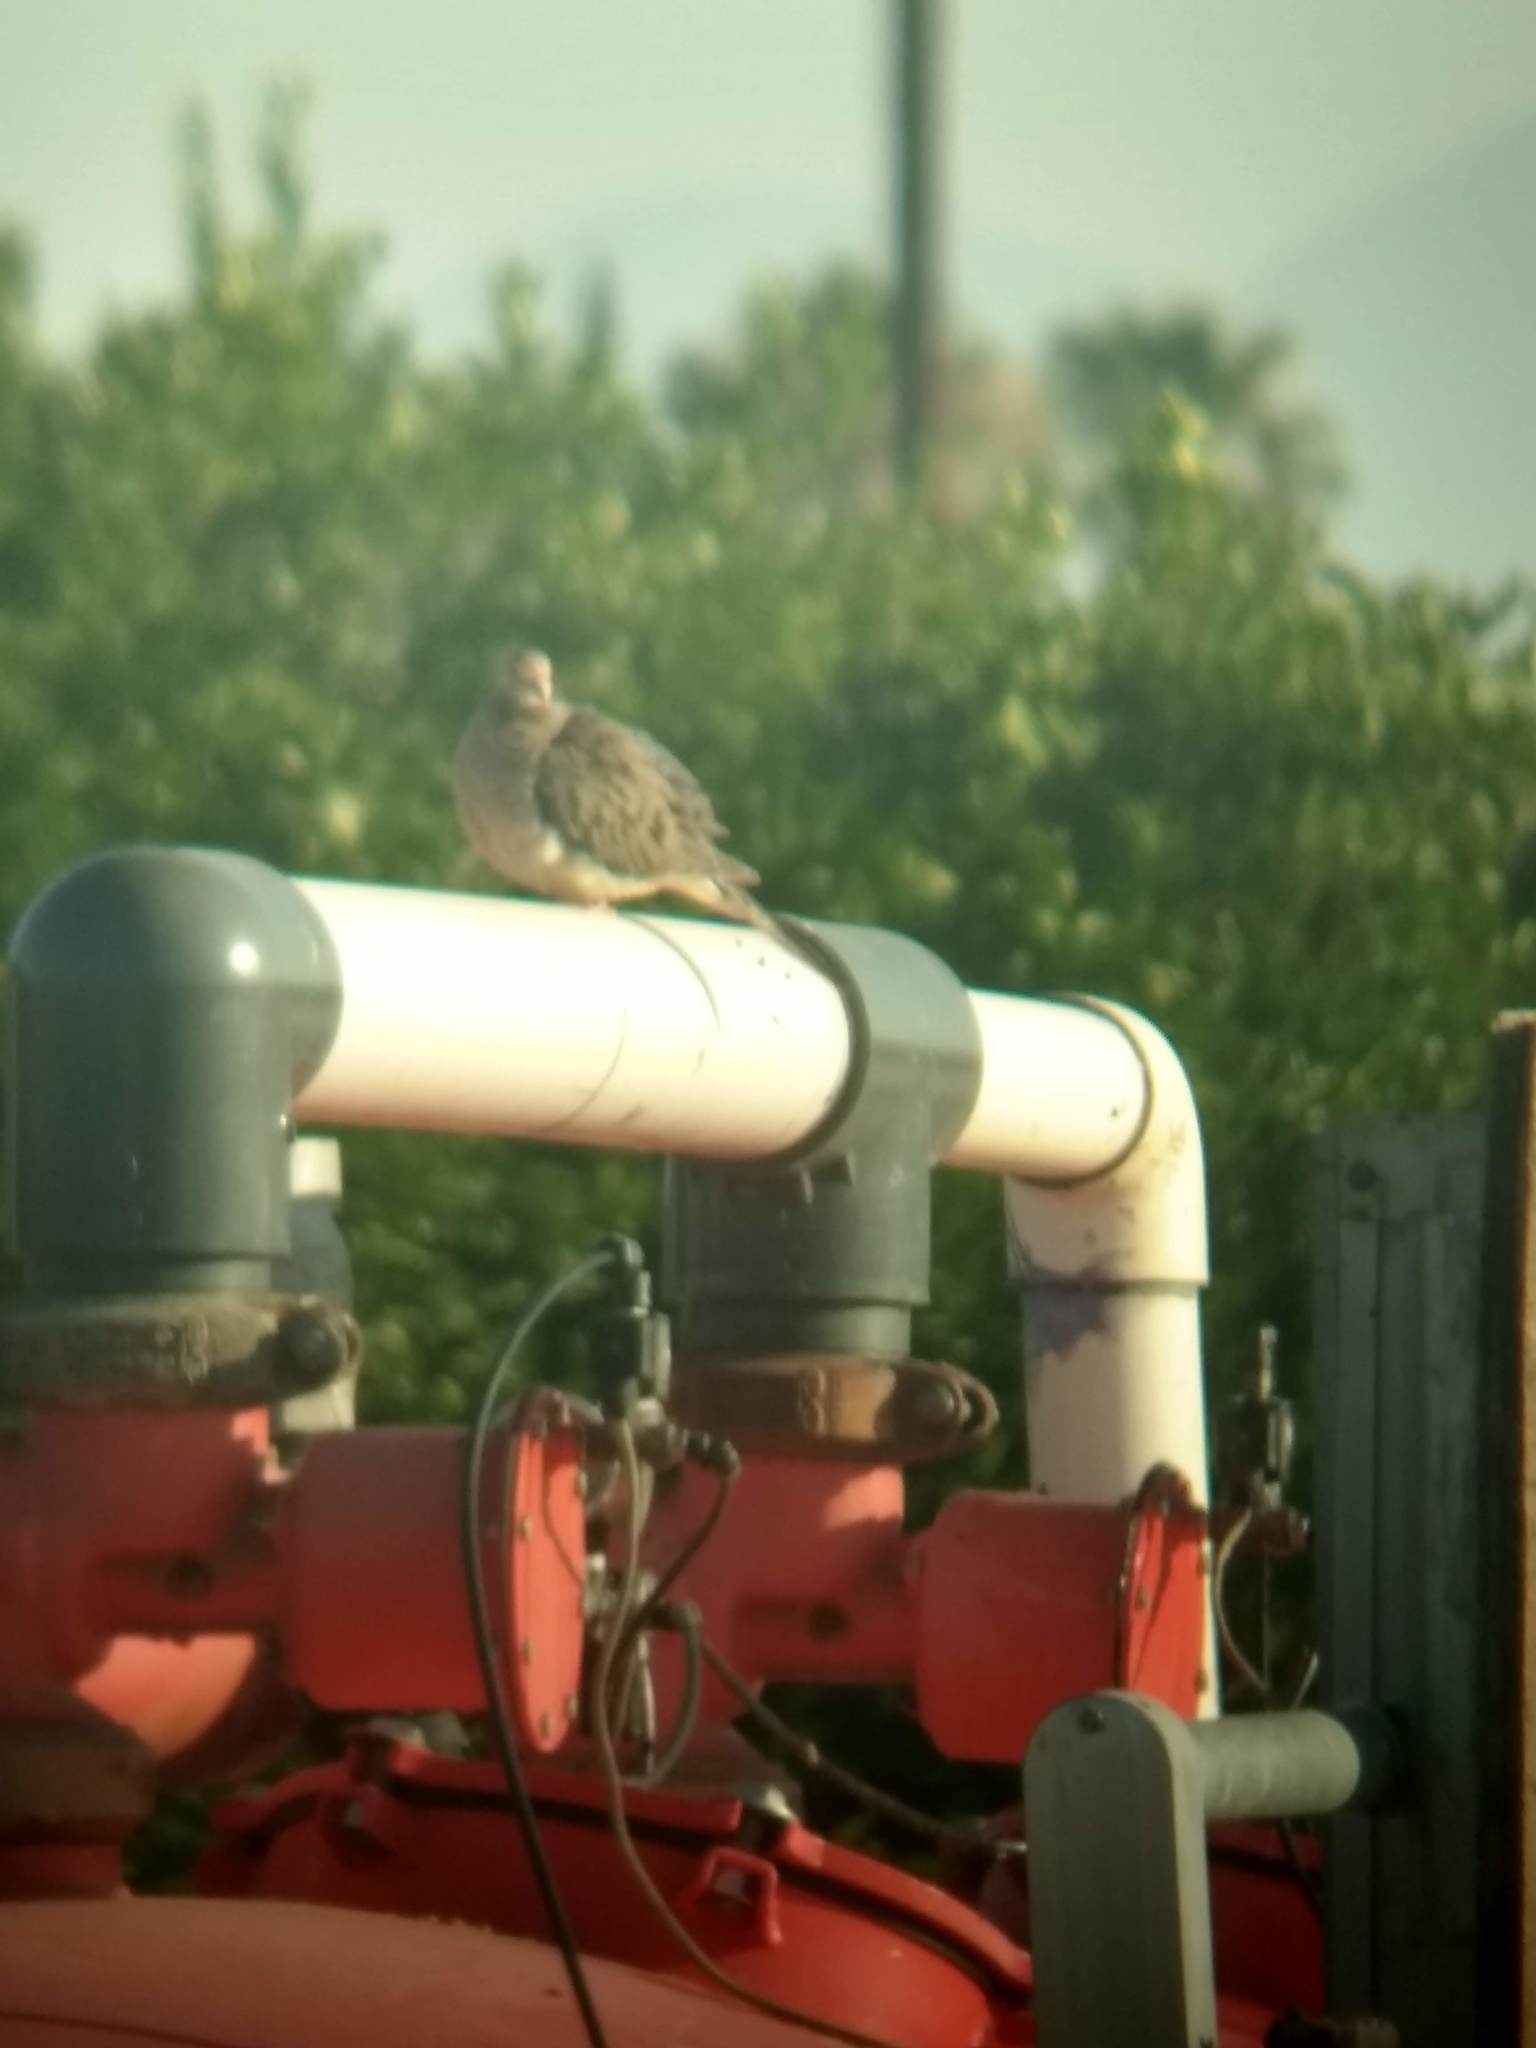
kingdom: Animalia
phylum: Chordata
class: Aves
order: Columbiformes
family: Columbidae
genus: Zenaida
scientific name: Zenaida macroura
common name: Mourning dove
